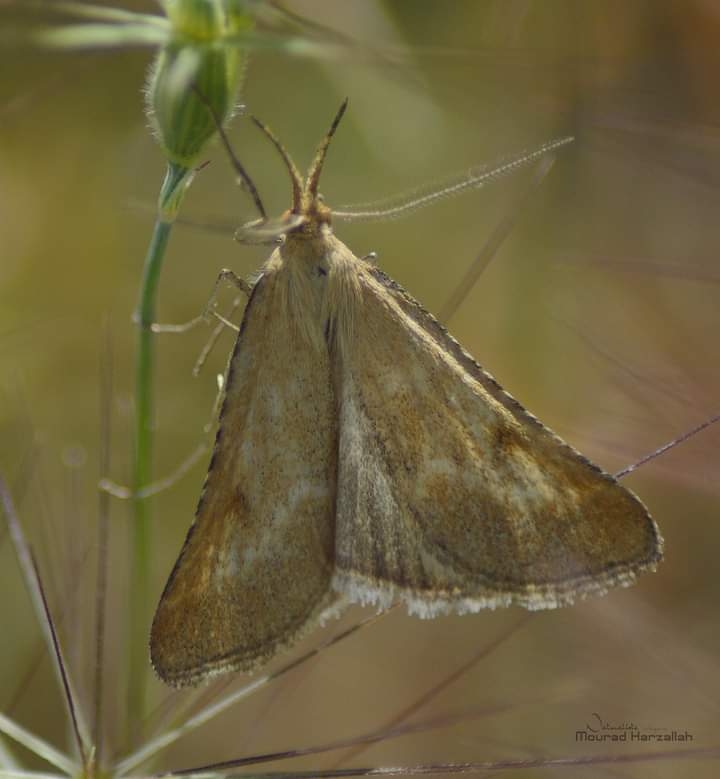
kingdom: Animalia
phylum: Arthropoda
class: Insecta
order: Lepidoptera
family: Pyralidae
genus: Synaphe
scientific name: Synaphe punctalis
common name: Long-legged tabby
